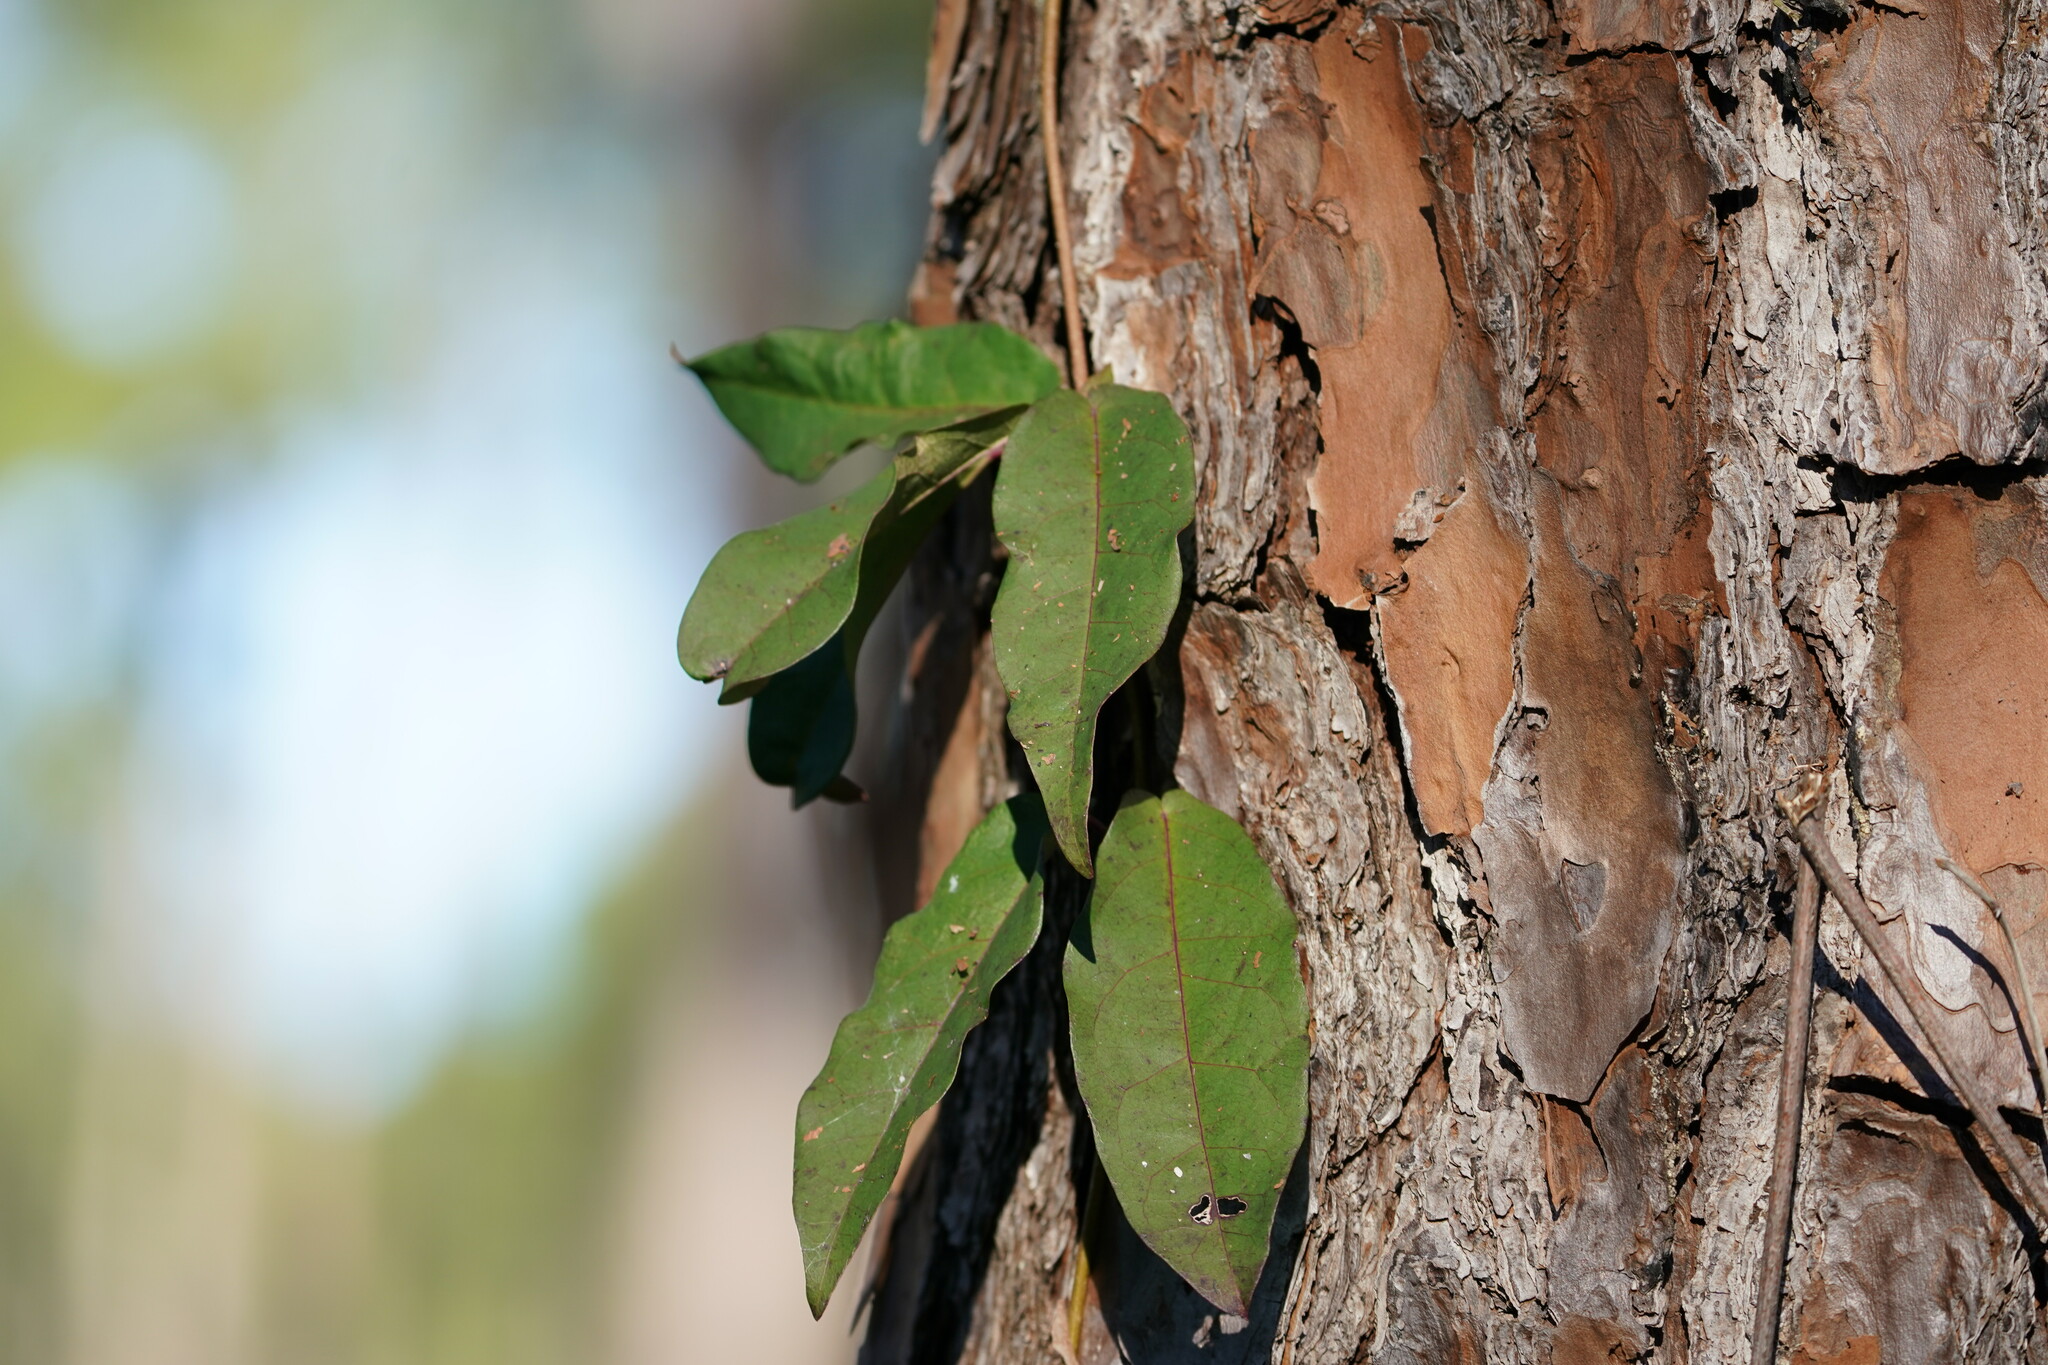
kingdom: Plantae
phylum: Tracheophyta
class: Magnoliopsida
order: Lamiales
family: Bignoniaceae
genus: Bignonia
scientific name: Bignonia capreolata
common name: Crossvine
